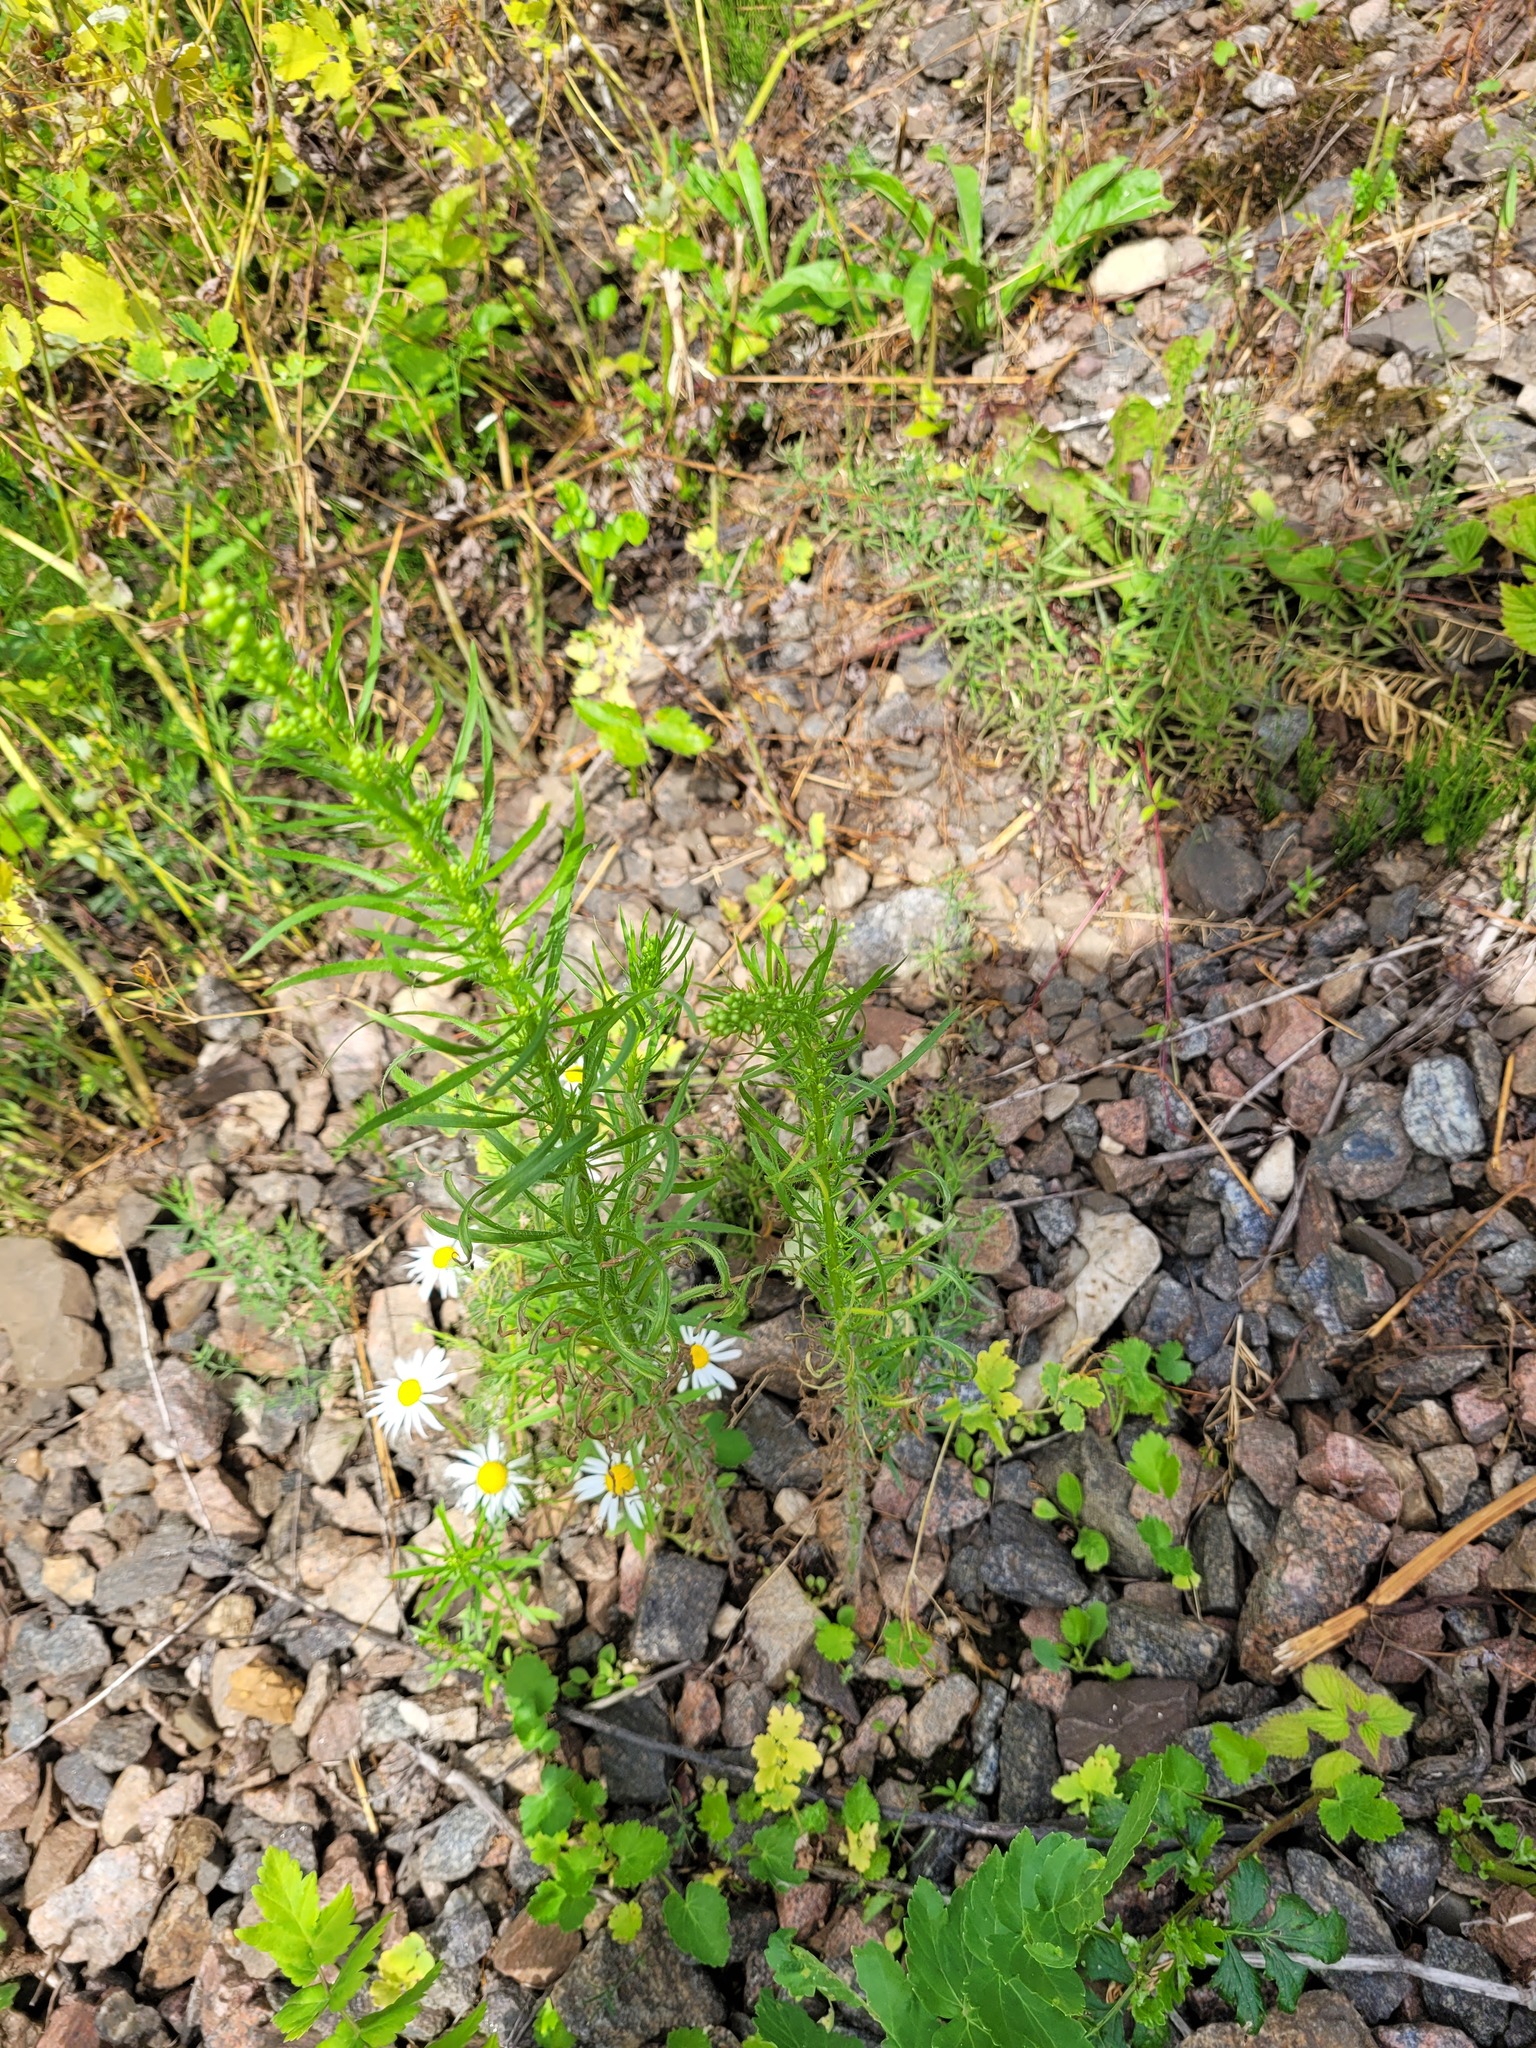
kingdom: Plantae
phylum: Tracheophyta
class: Magnoliopsida
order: Asterales
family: Asteraceae
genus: Erigeron
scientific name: Erigeron canadensis
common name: Canadian fleabane
